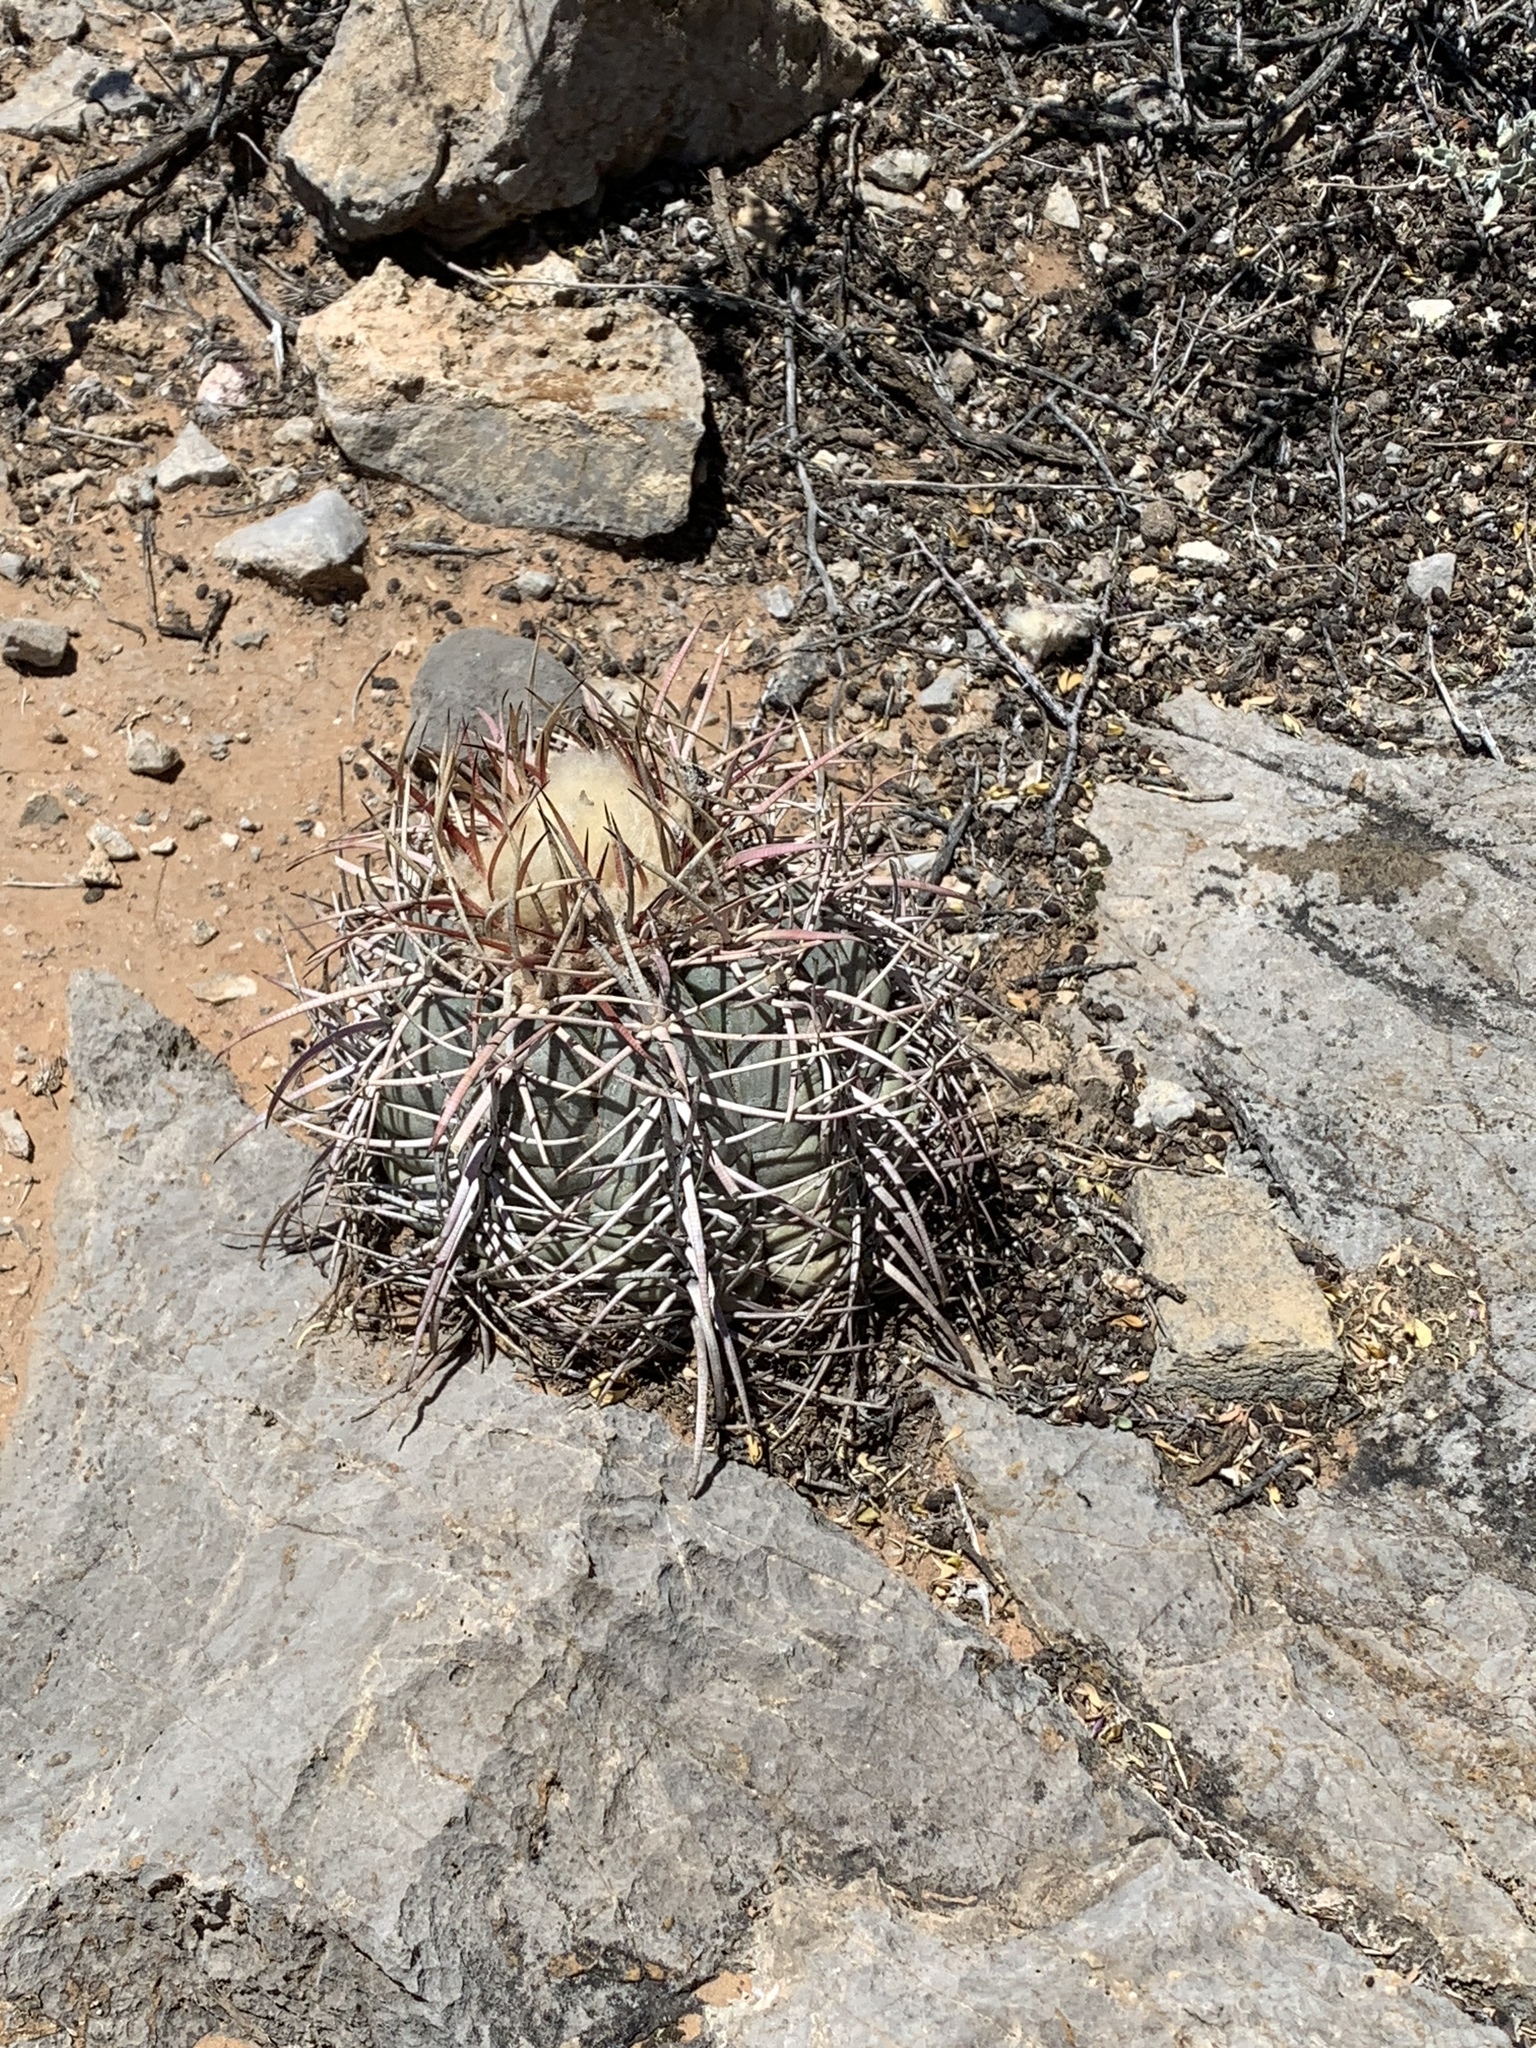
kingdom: Plantae
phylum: Tracheophyta
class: Magnoliopsida
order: Caryophyllales
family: Cactaceae
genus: Echinocactus
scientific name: Echinocactus horizonthalonius
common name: Devilshead
